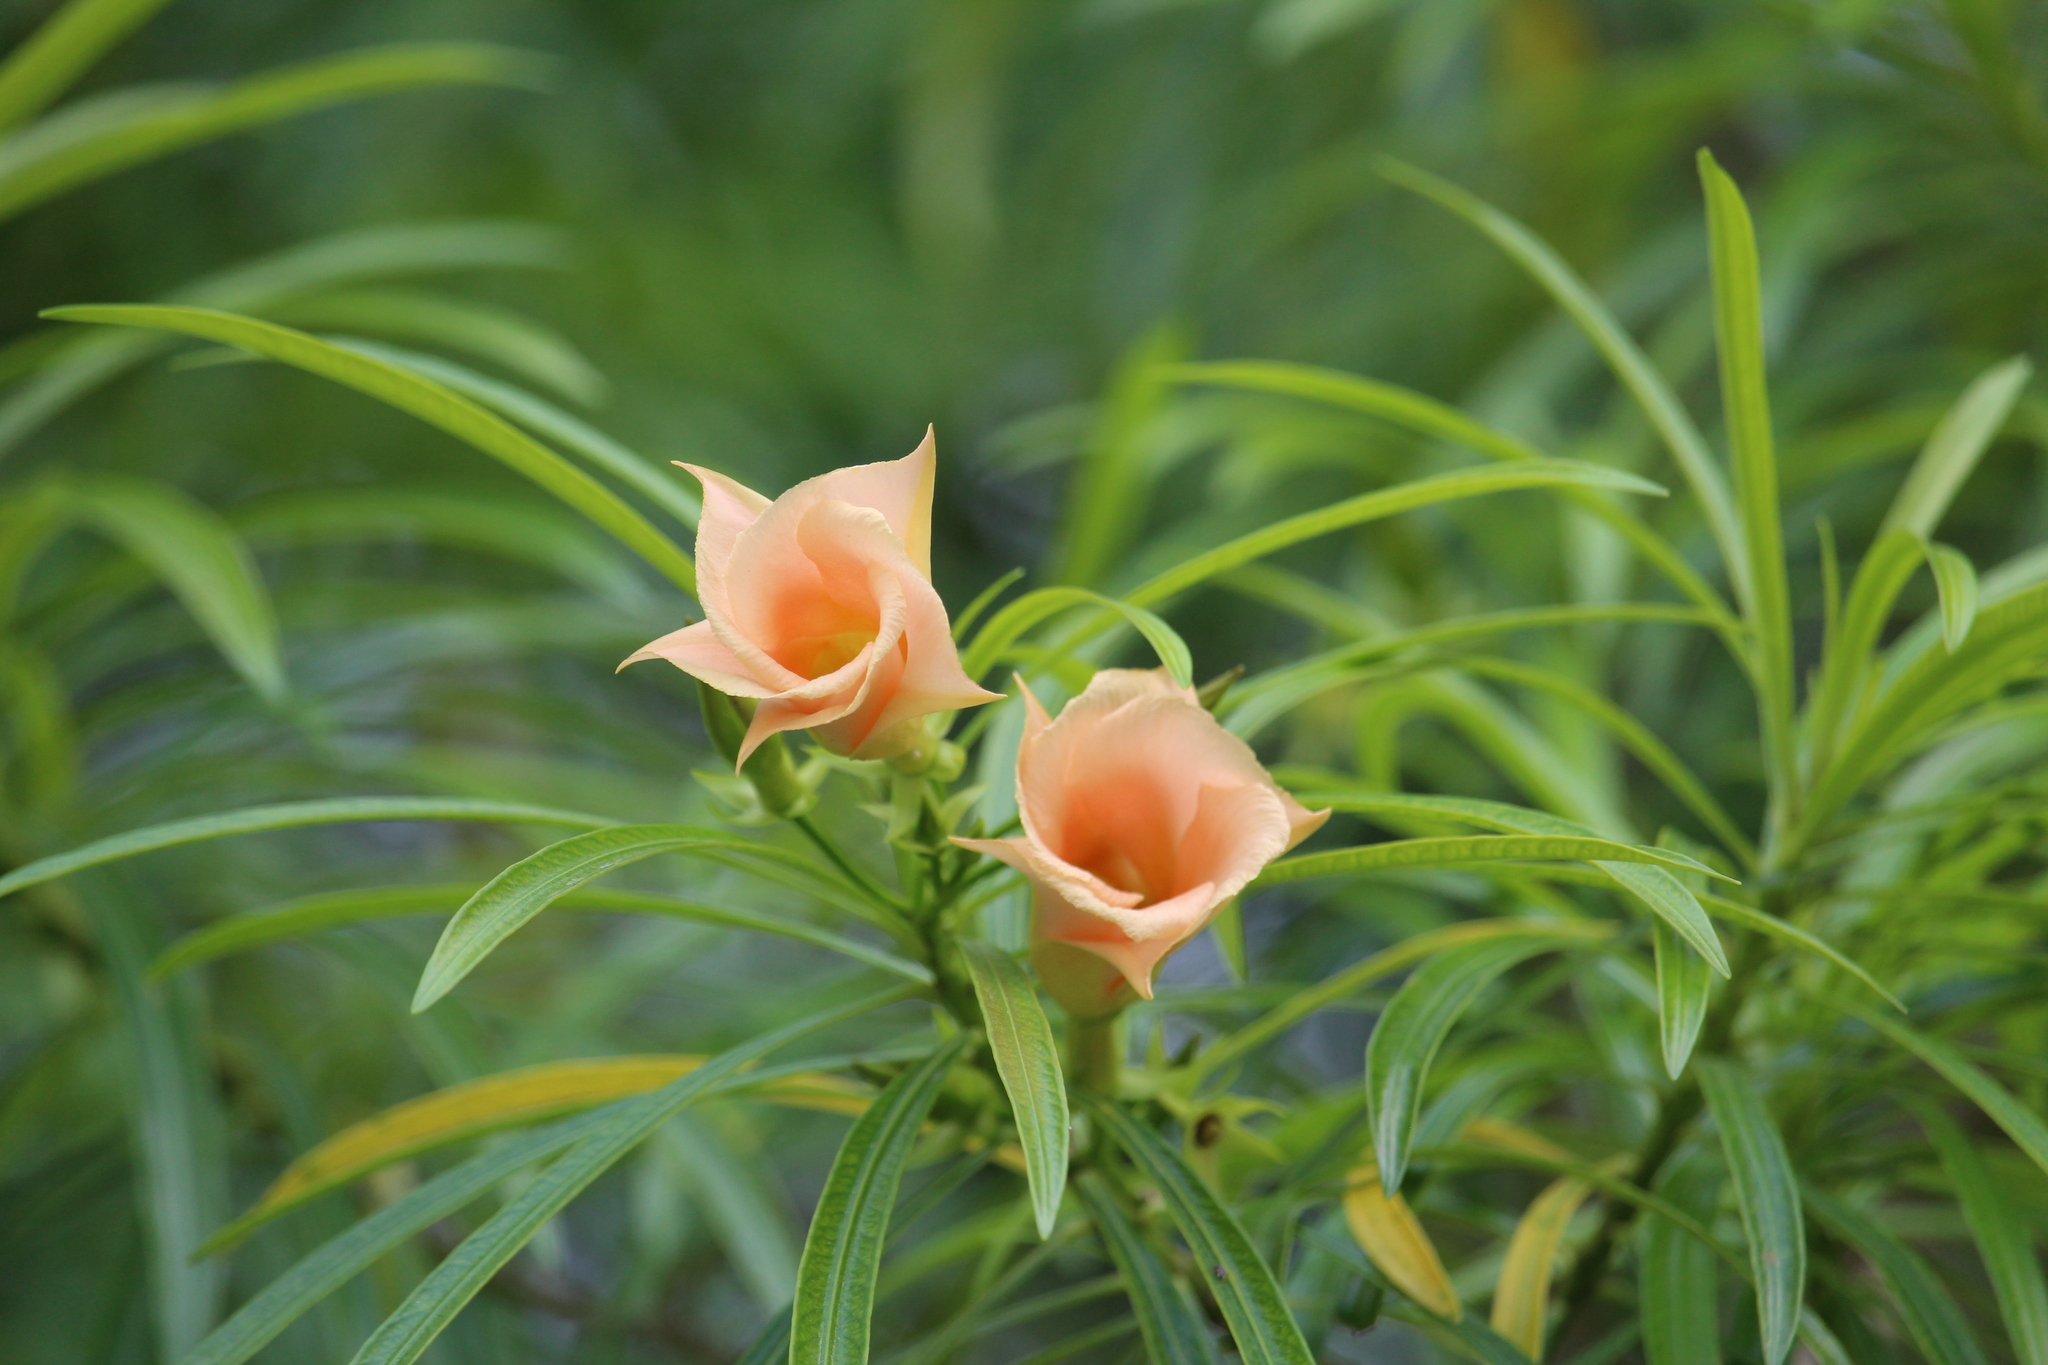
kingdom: Plantae
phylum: Tracheophyta
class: Magnoliopsida
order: Gentianales
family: Apocynaceae
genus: Cascabela
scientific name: Cascabela thevetia
